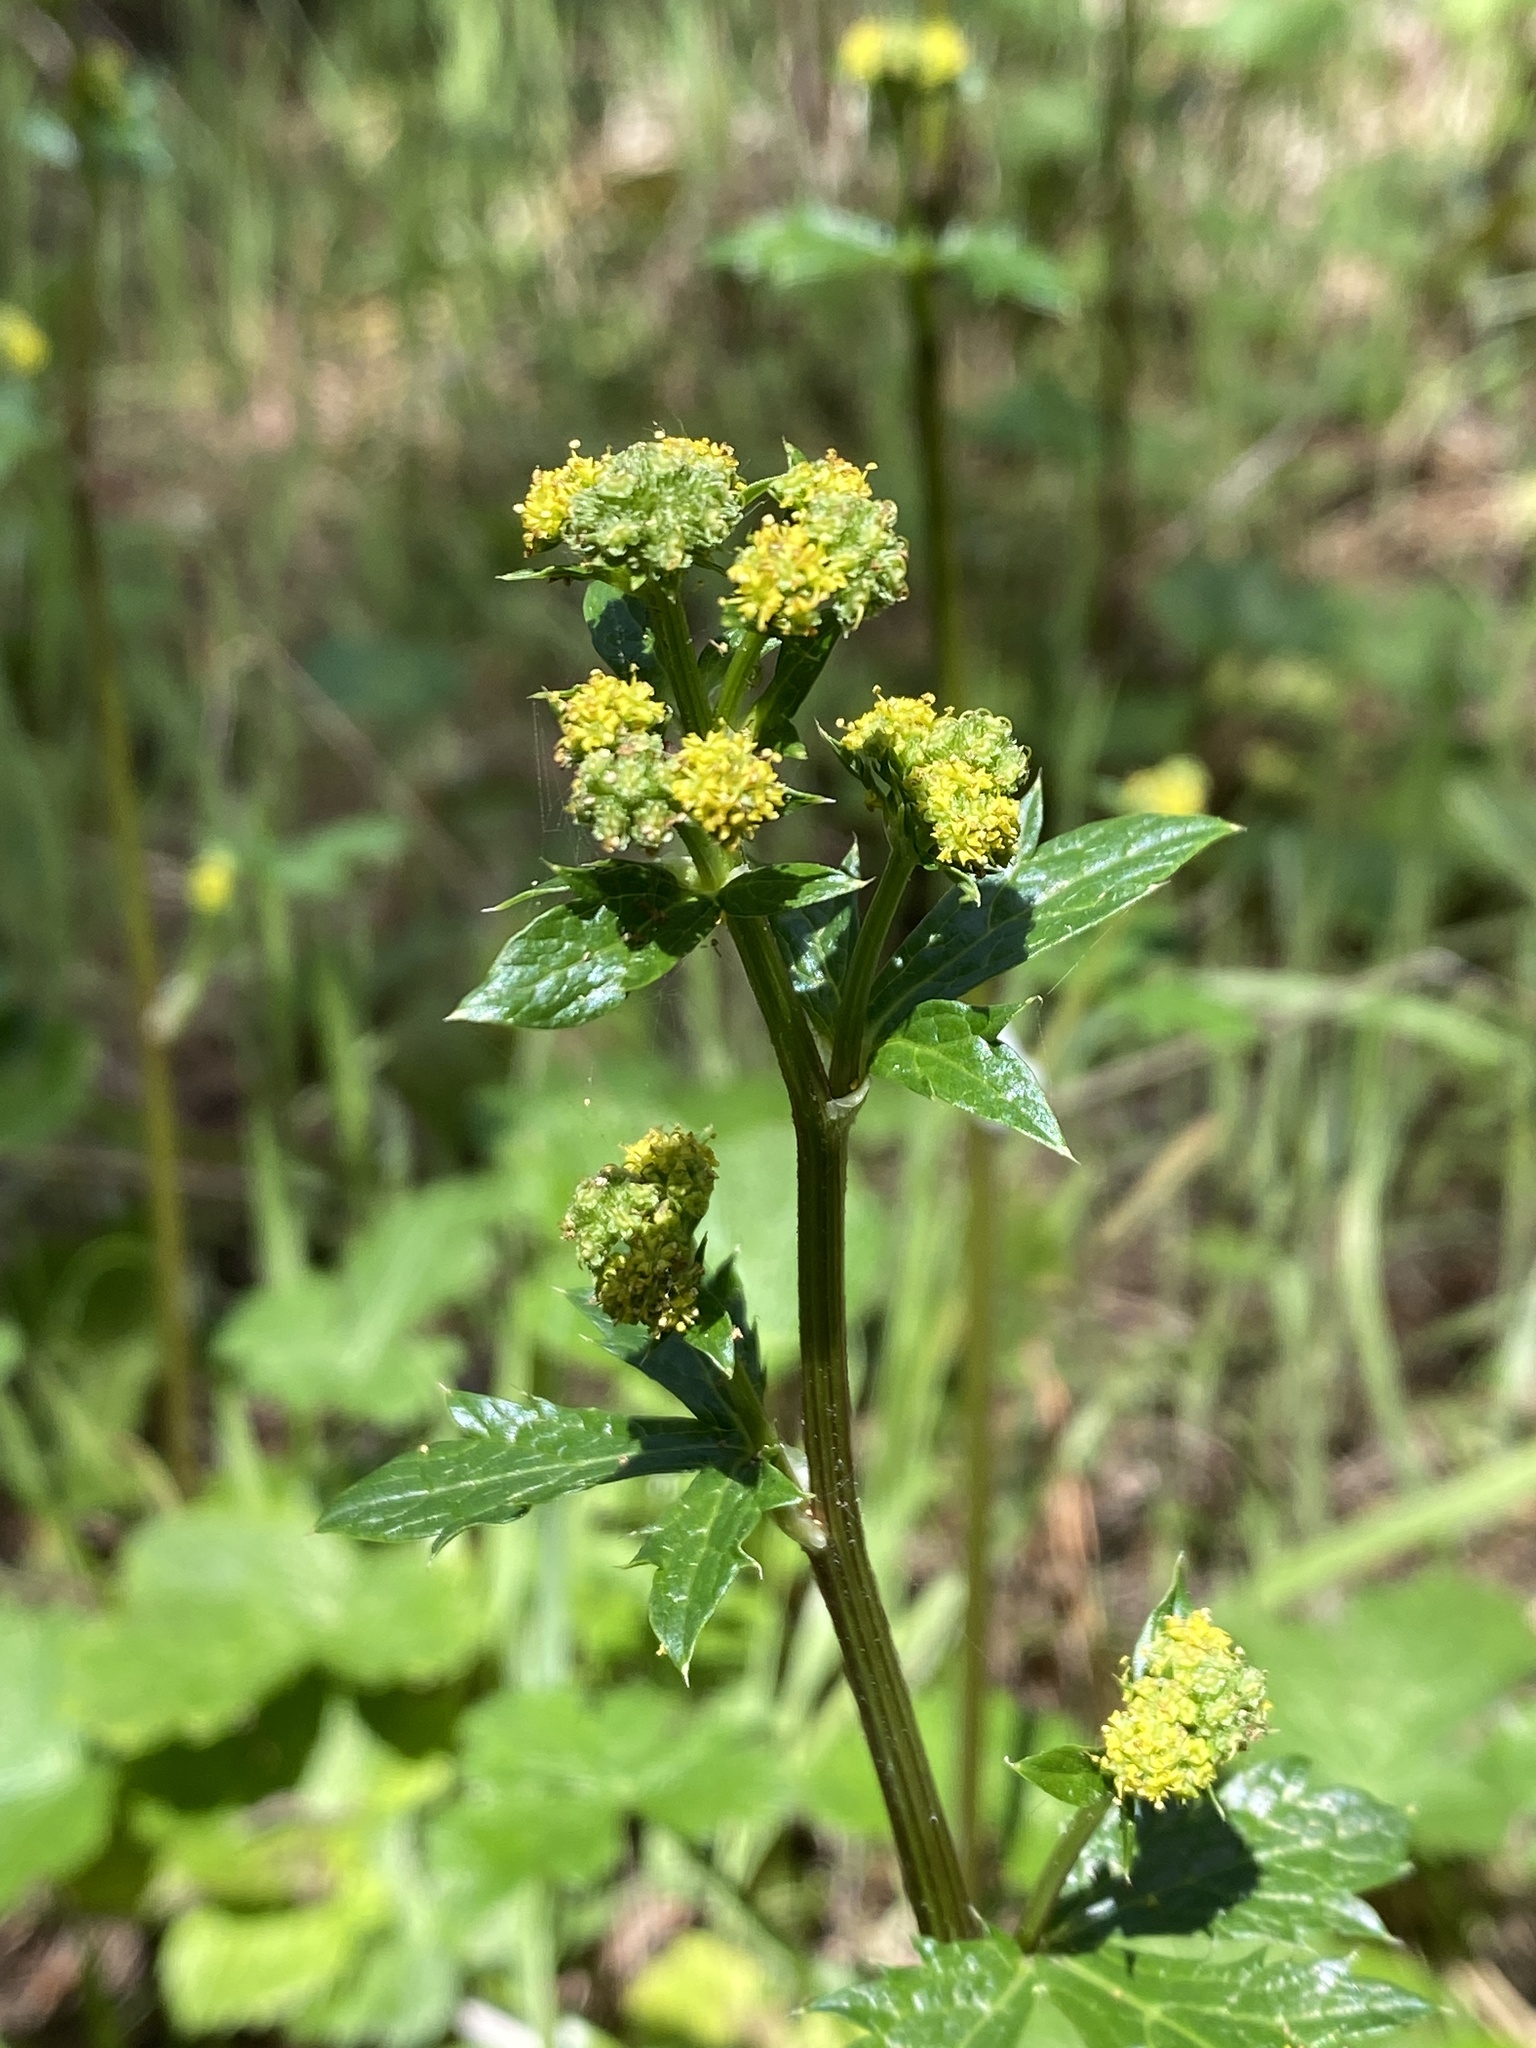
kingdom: Plantae
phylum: Tracheophyta
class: Magnoliopsida
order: Apiales
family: Apiaceae
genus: Sanicula
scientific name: Sanicula crassicaulis
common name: Western snakeroot
